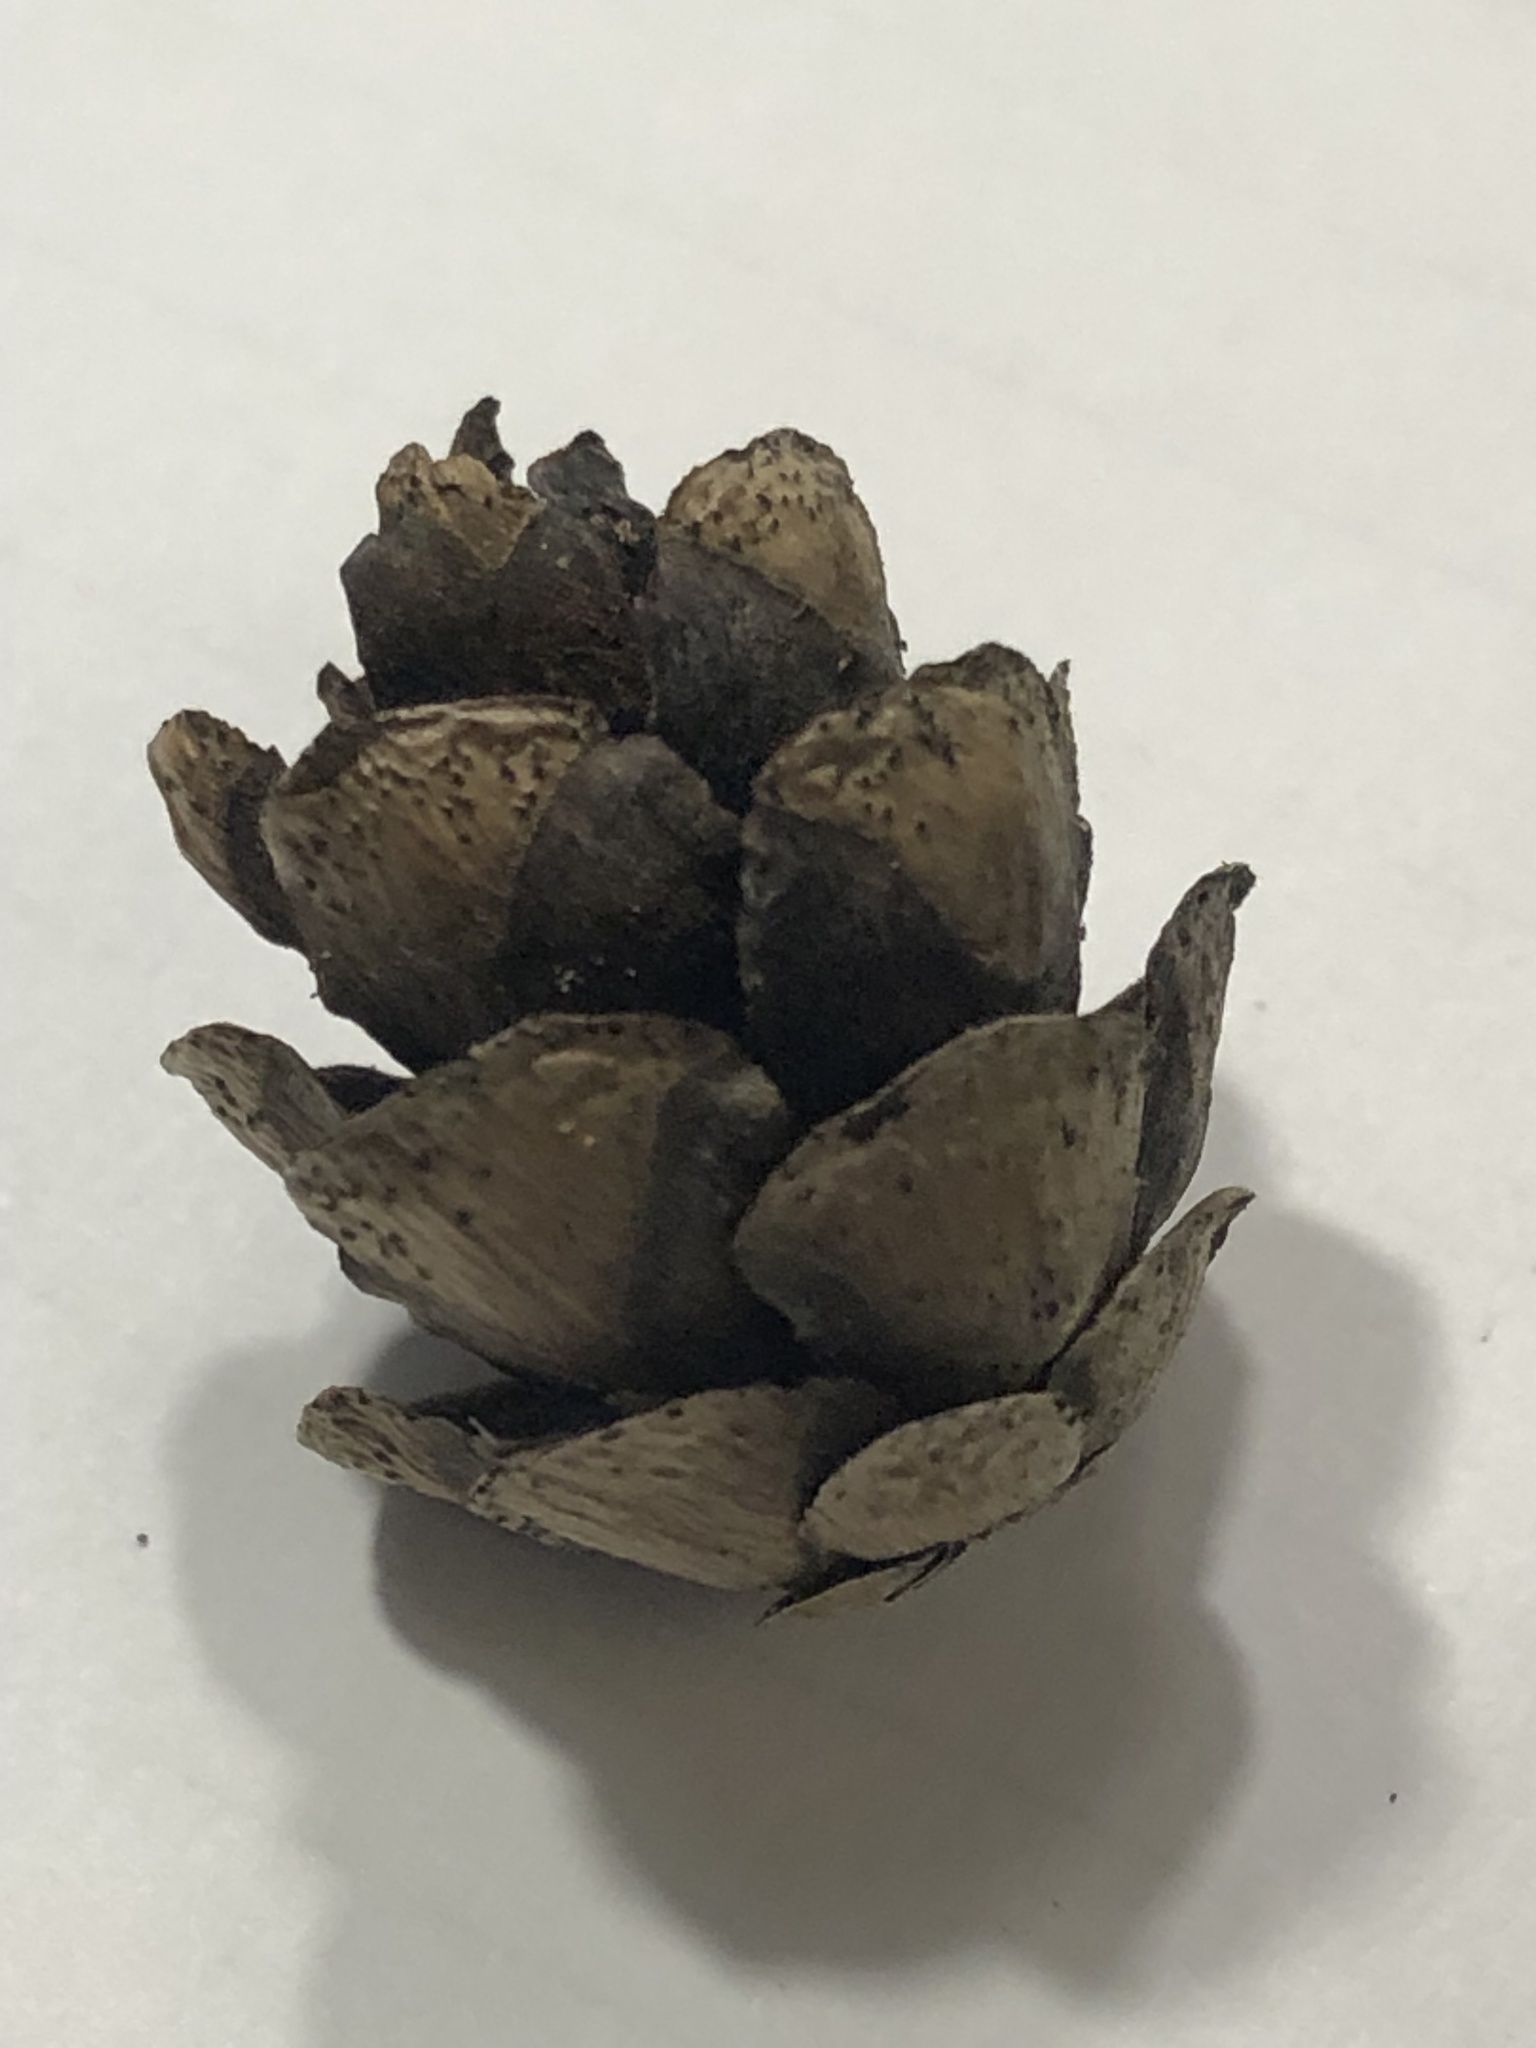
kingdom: Plantae
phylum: Tracheophyta
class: Pinopsida
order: Pinales
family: Pinaceae
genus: Tsuga
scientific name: Tsuga canadensis
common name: Eastern hemlock
